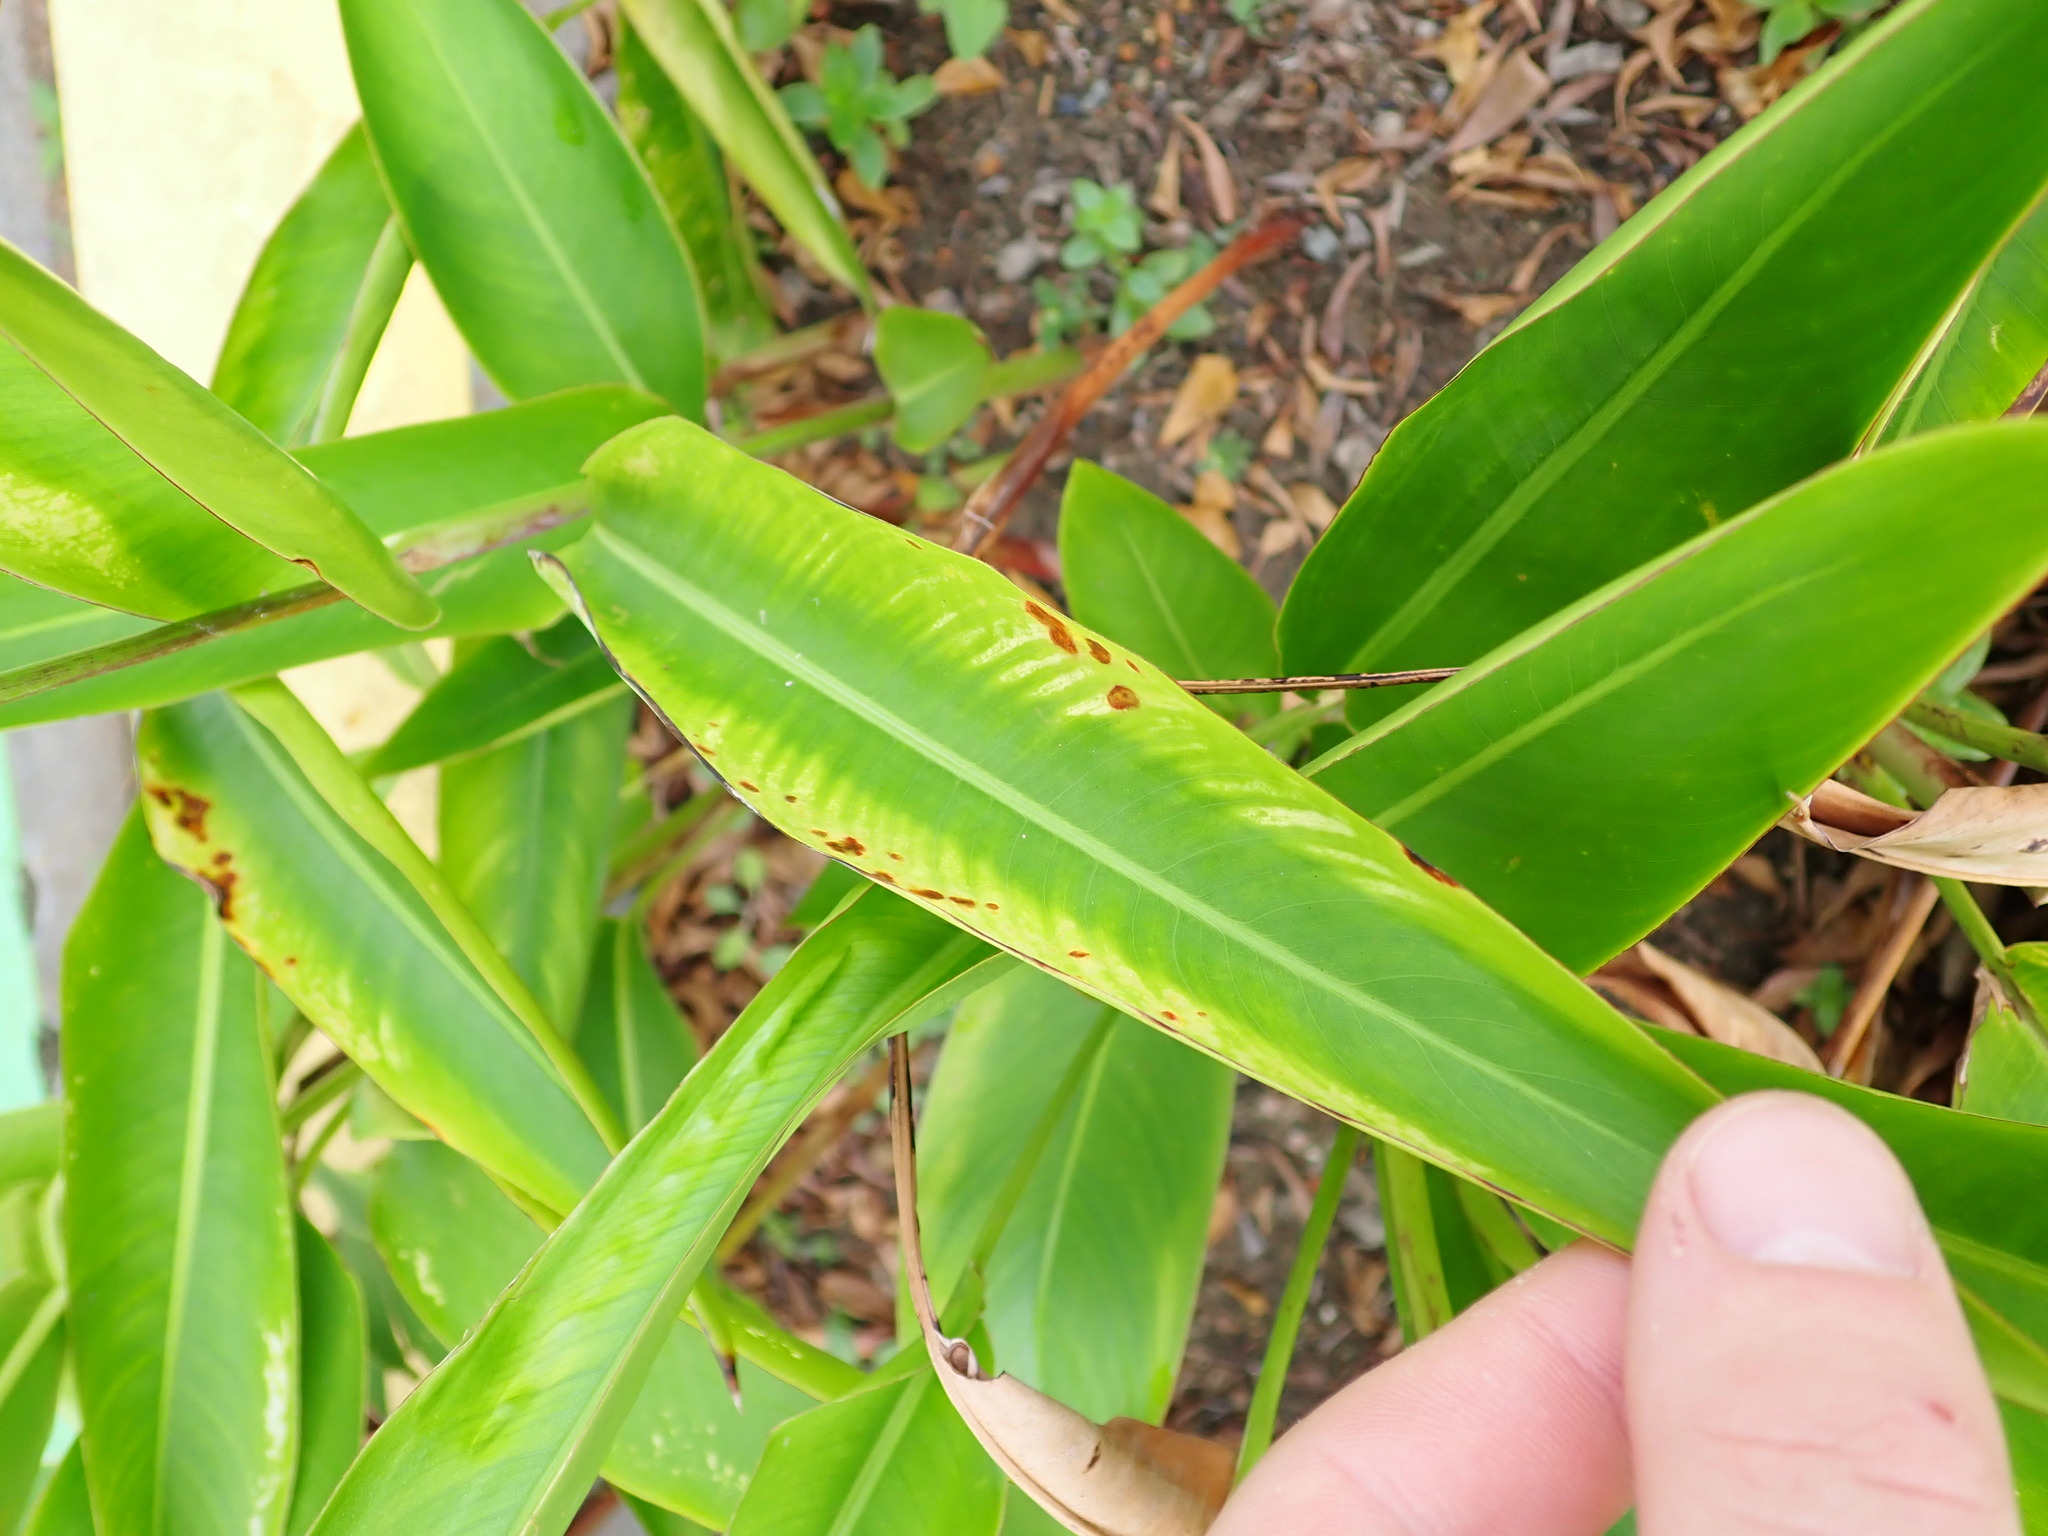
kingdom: Plantae
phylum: Tracheophyta
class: Liliopsida
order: Zingiberales
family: Heliconiaceae
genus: Heliconia
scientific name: Heliconia psittacorum
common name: Parrot's-flower
